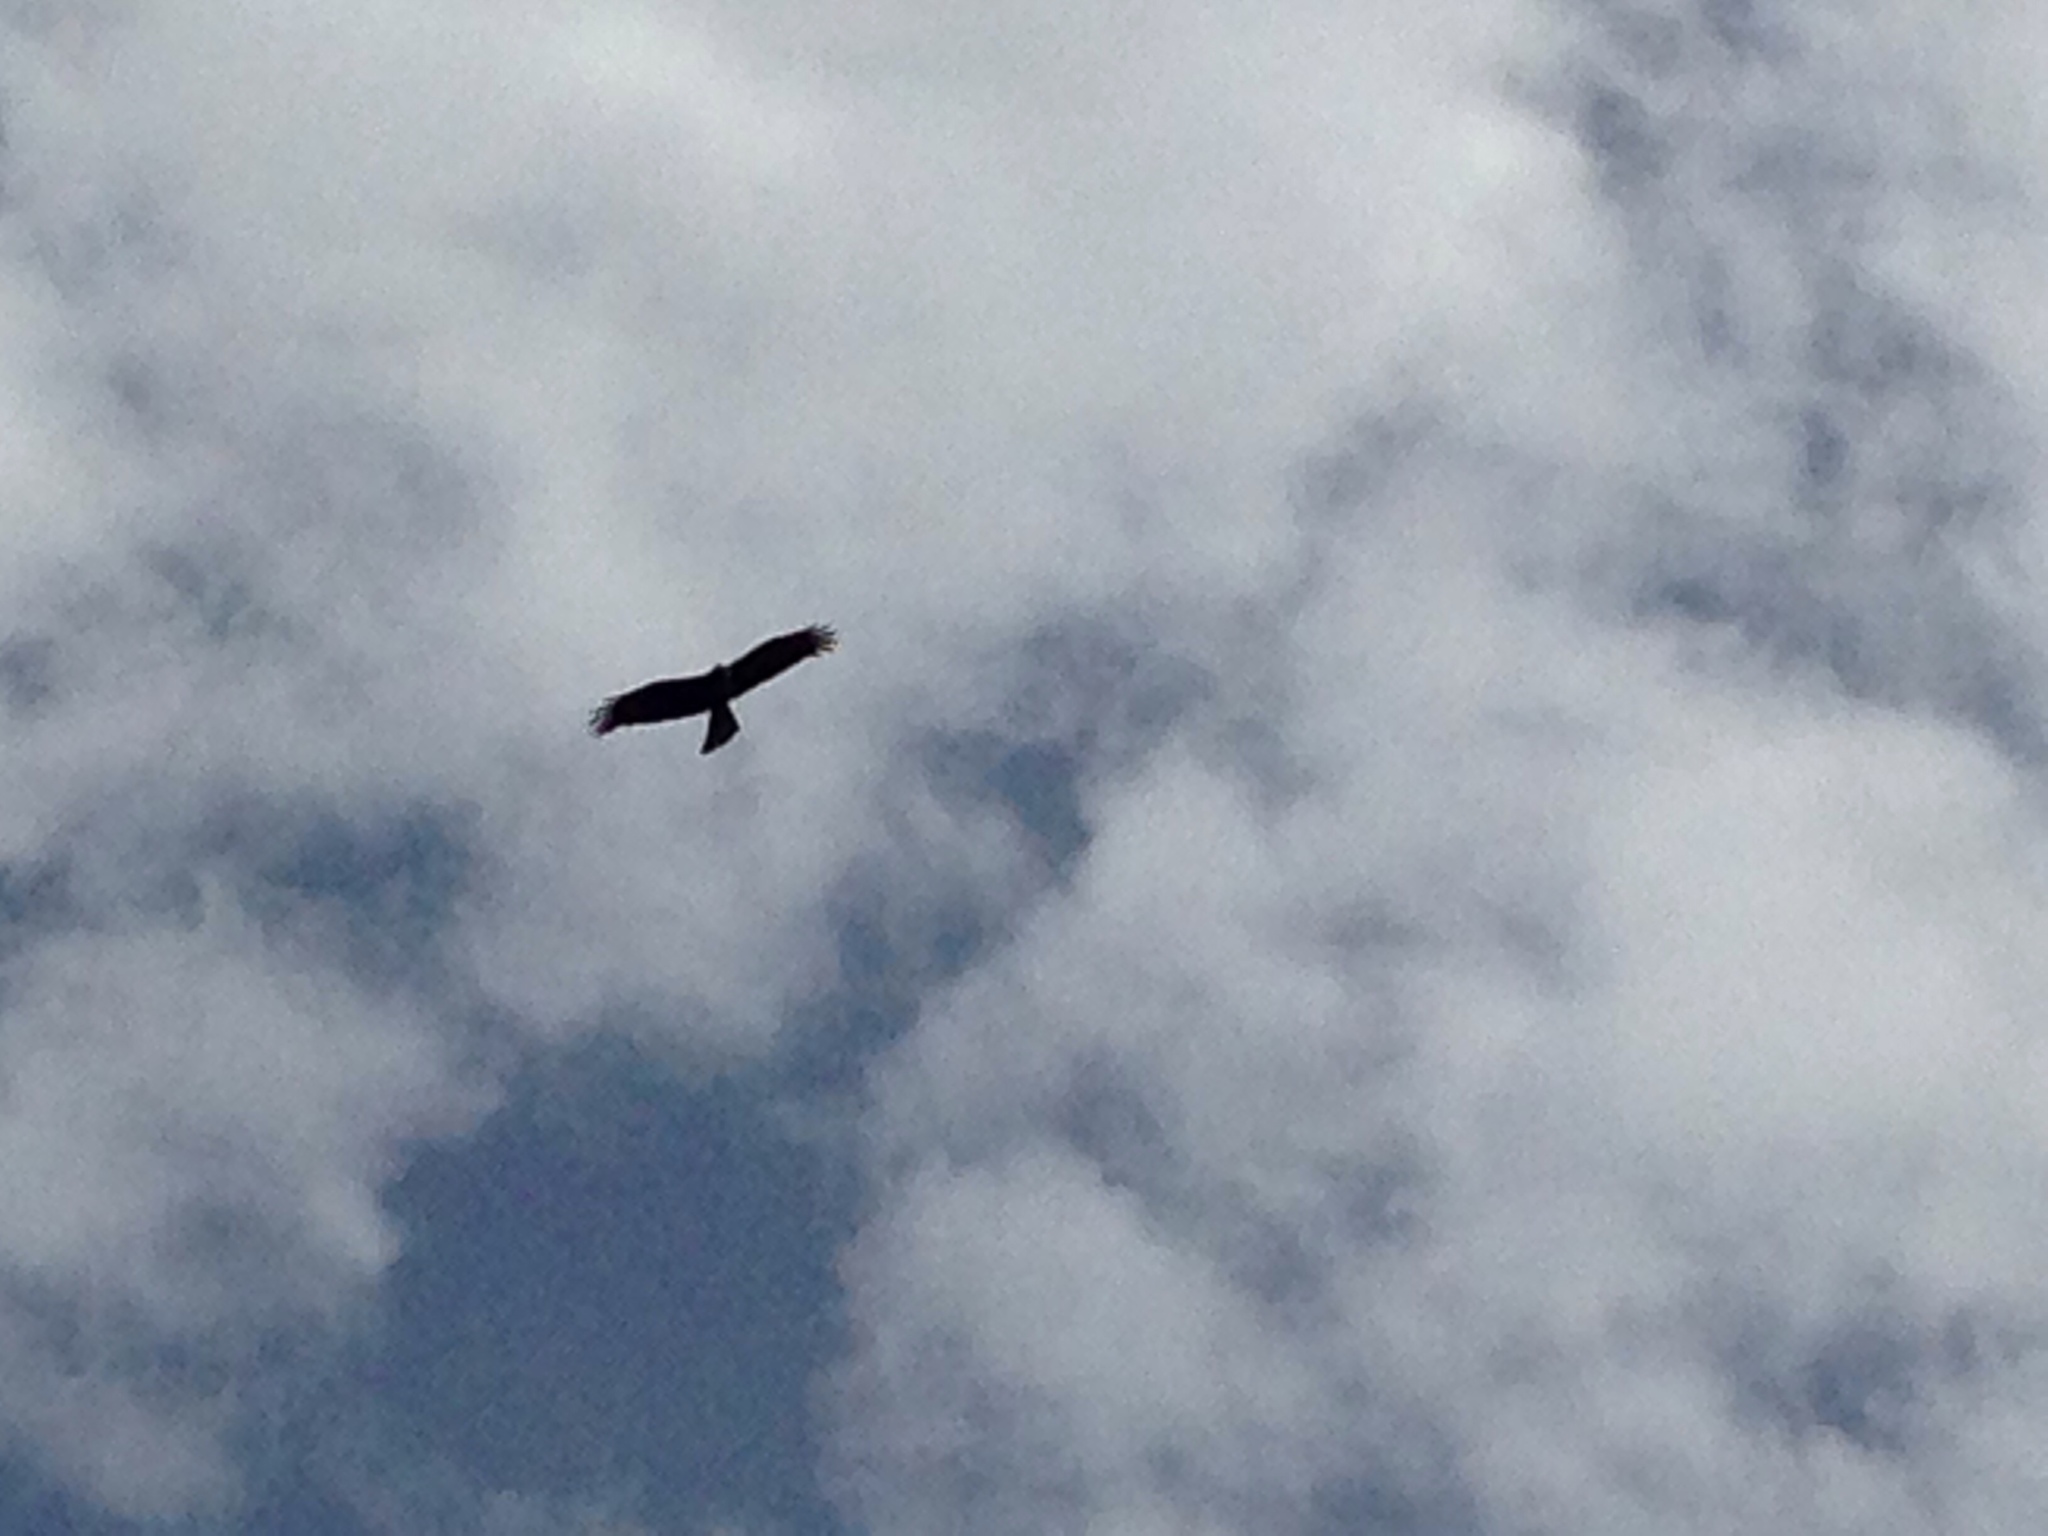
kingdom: Animalia
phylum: Chordata
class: Aves
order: Accipitriformes
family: Accipitridae
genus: Milvus
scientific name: Milvus migrans
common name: Black kite
